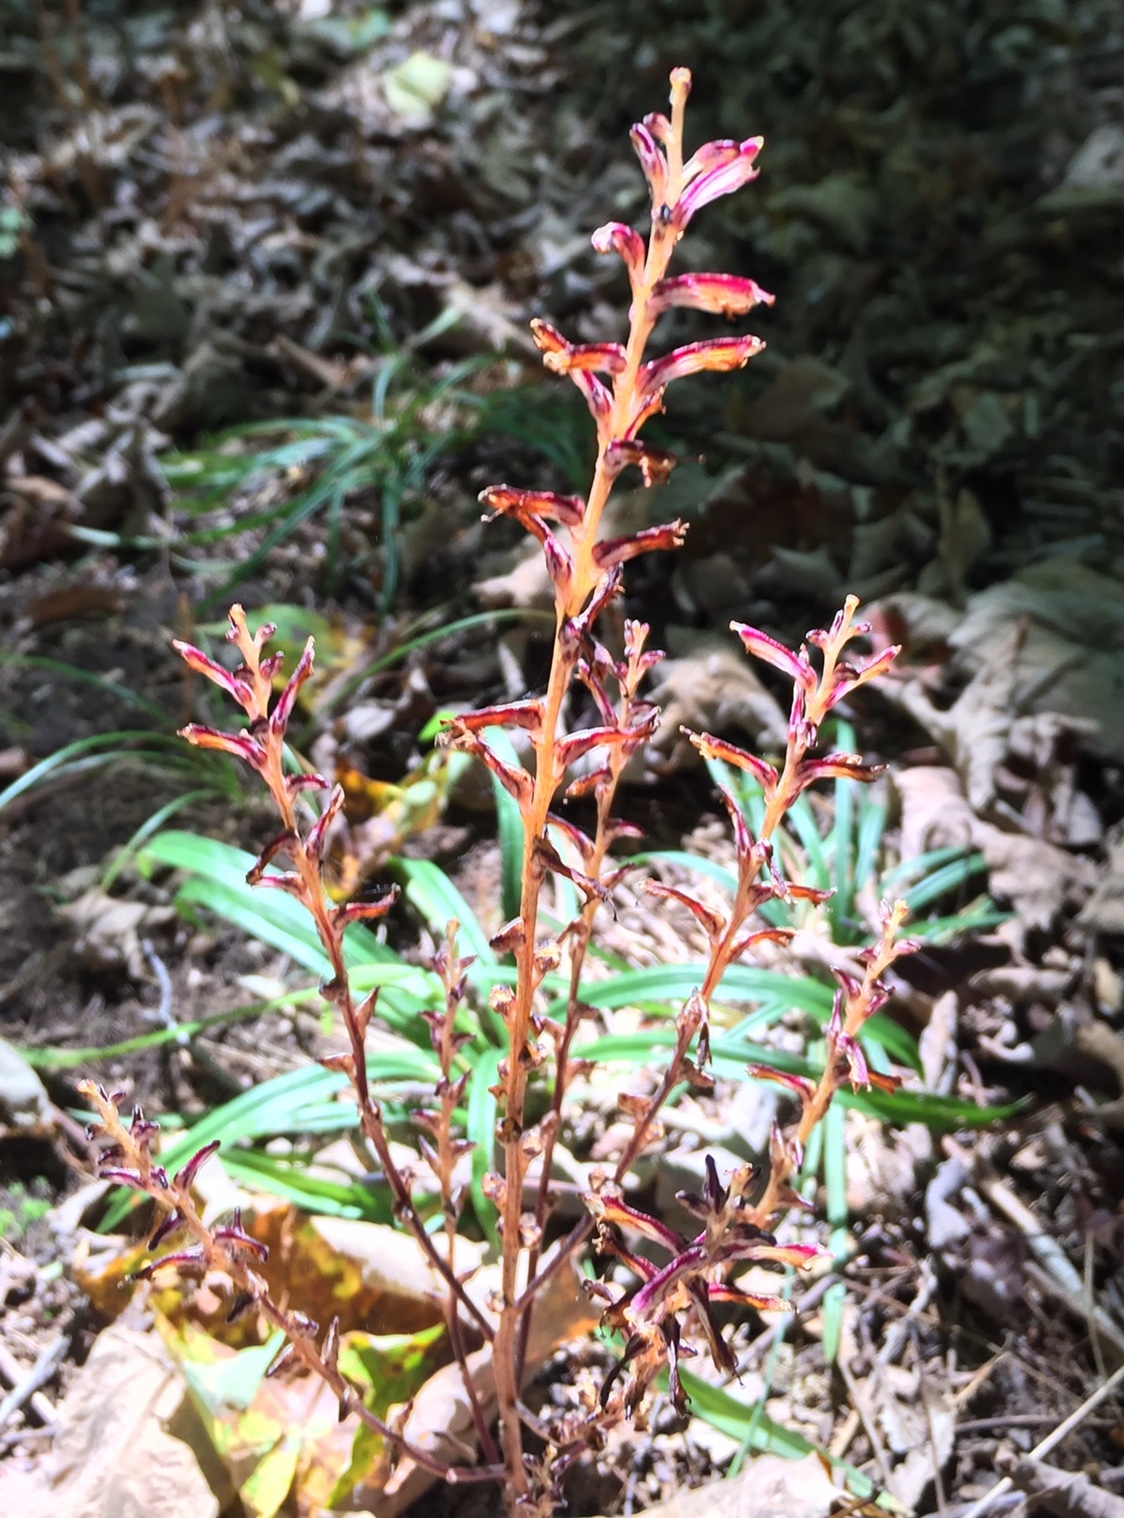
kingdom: Plantae
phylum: Tracheophyta
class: Magnoliopsida
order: Lamiales
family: Orobanchaceae
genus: Epifagus
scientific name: Epifagus virginiana
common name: Beechdrops
